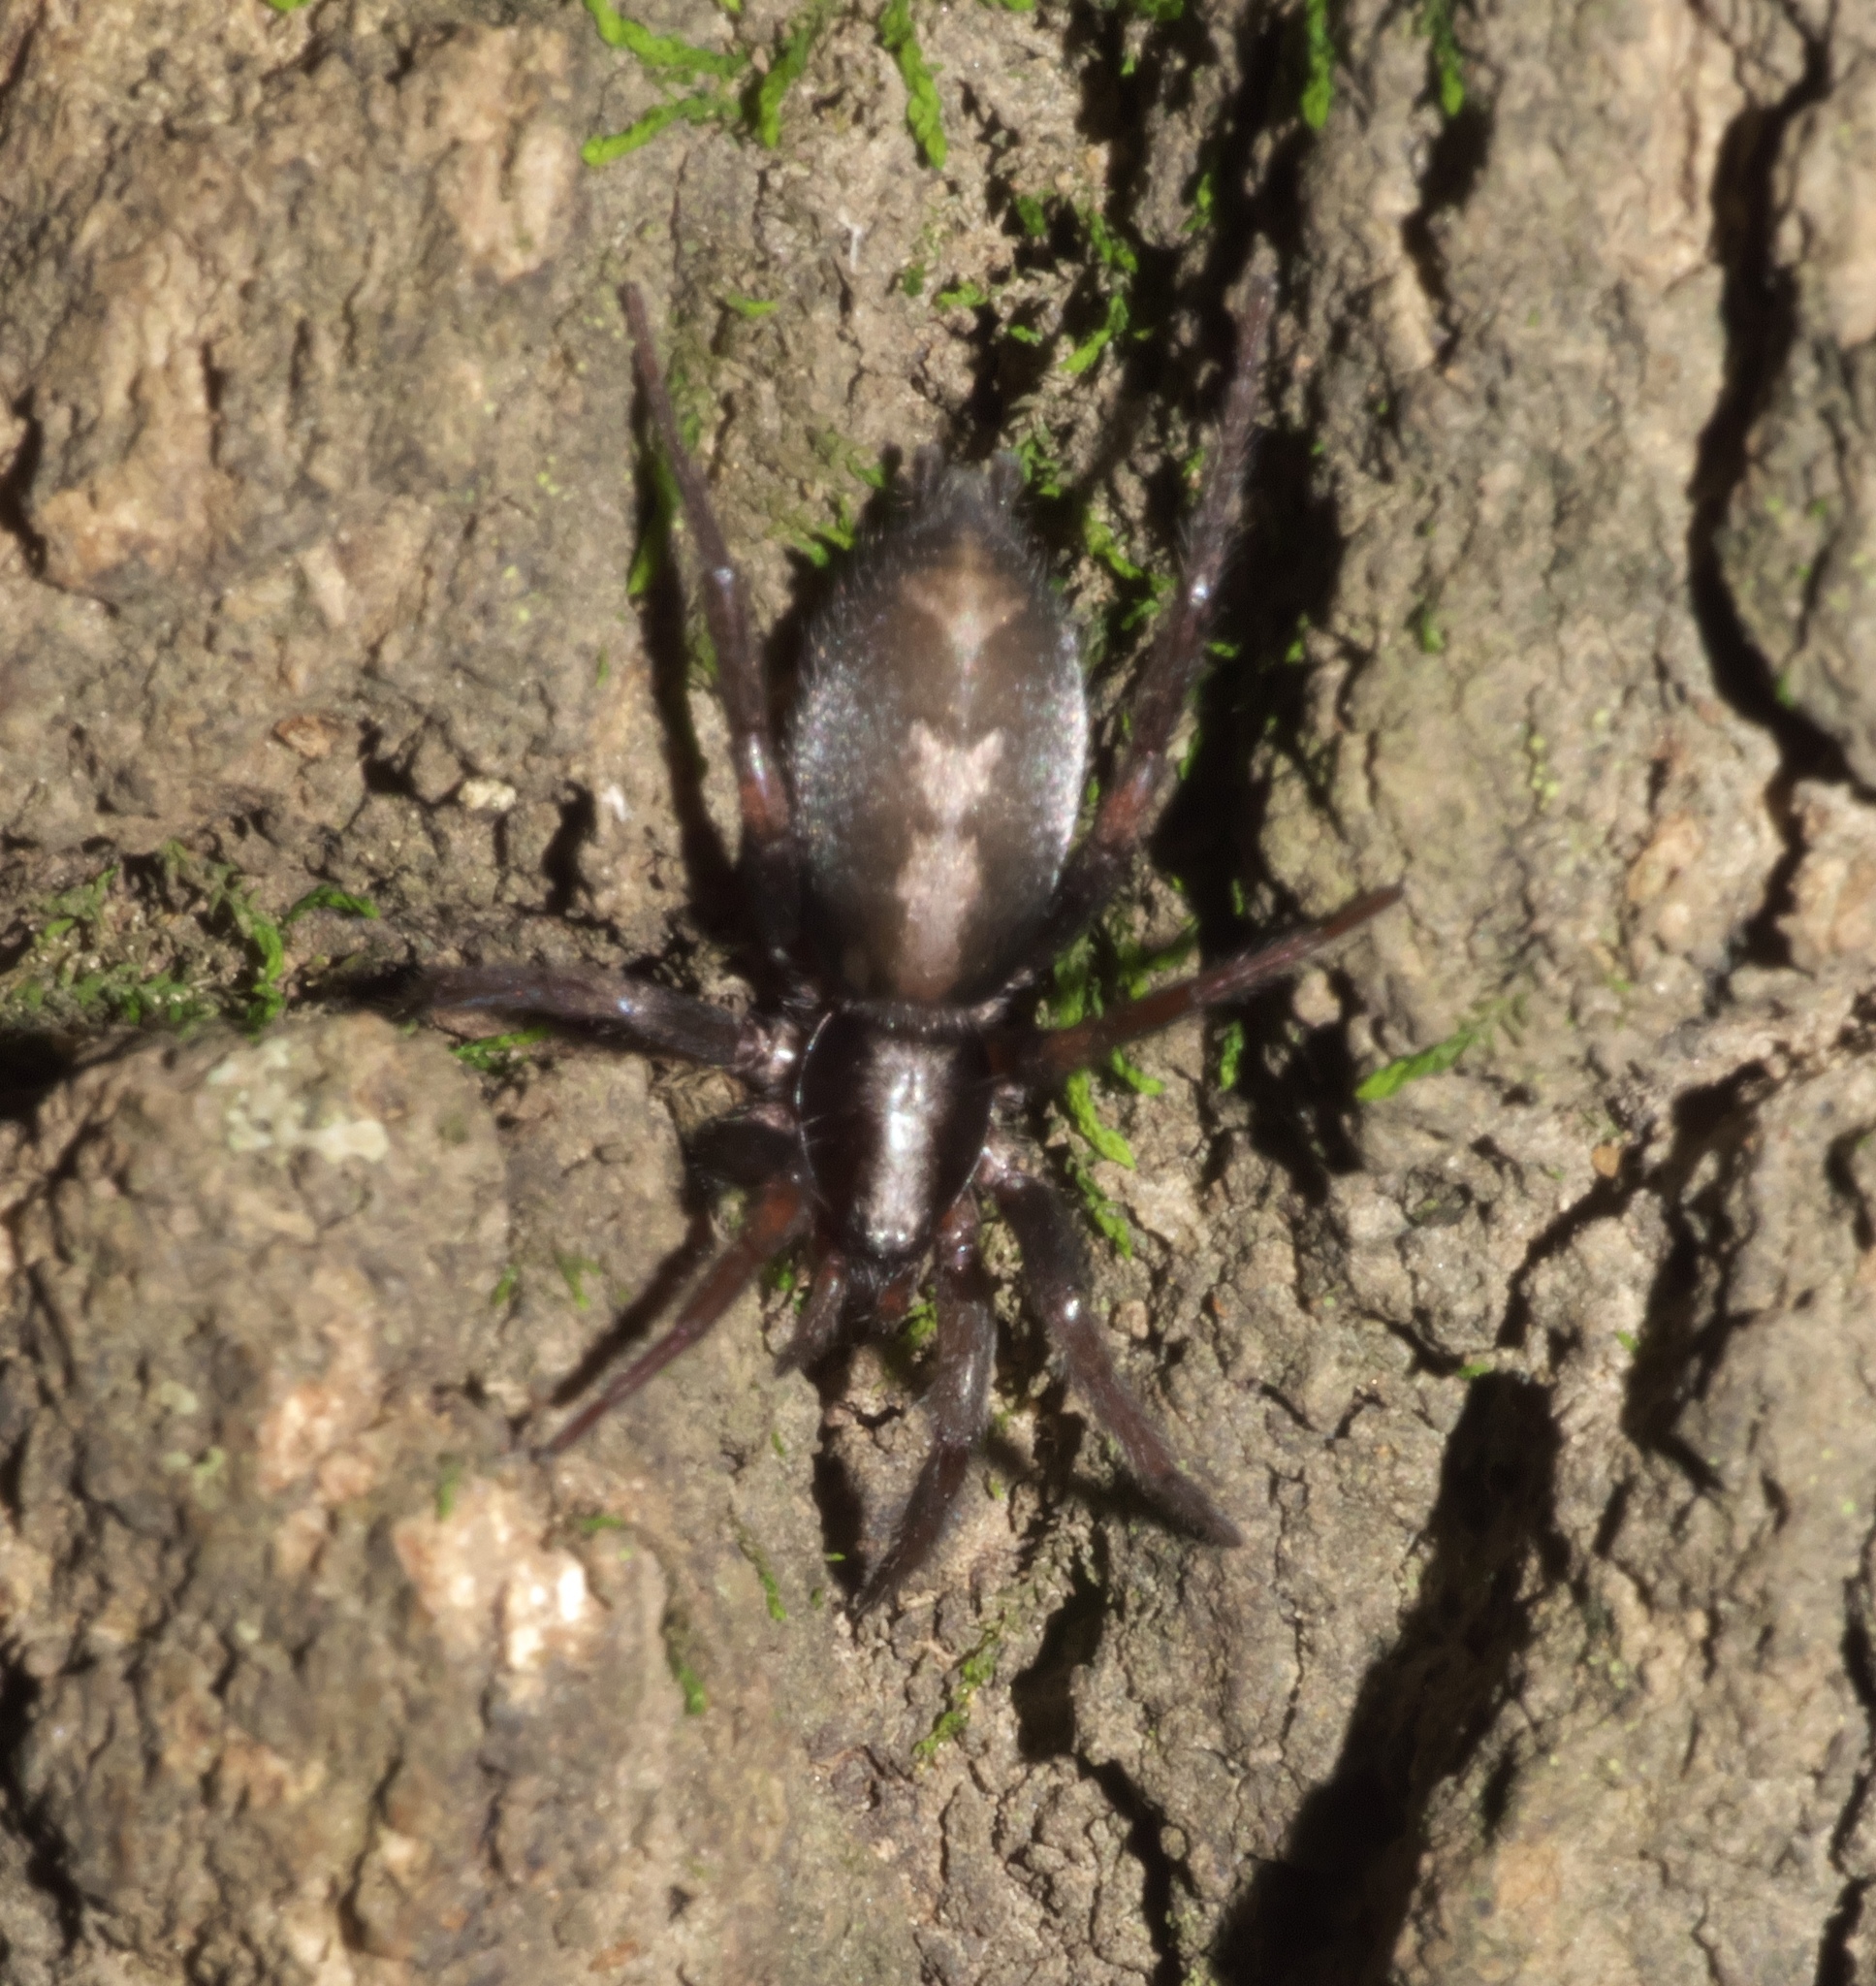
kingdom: Animalia
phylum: Arthropoda
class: Arachnida
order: Araneae
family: Gnaphosidae
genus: Herpyllus
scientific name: Herpyllus ecclesiasticus
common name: Eastern parson spider
